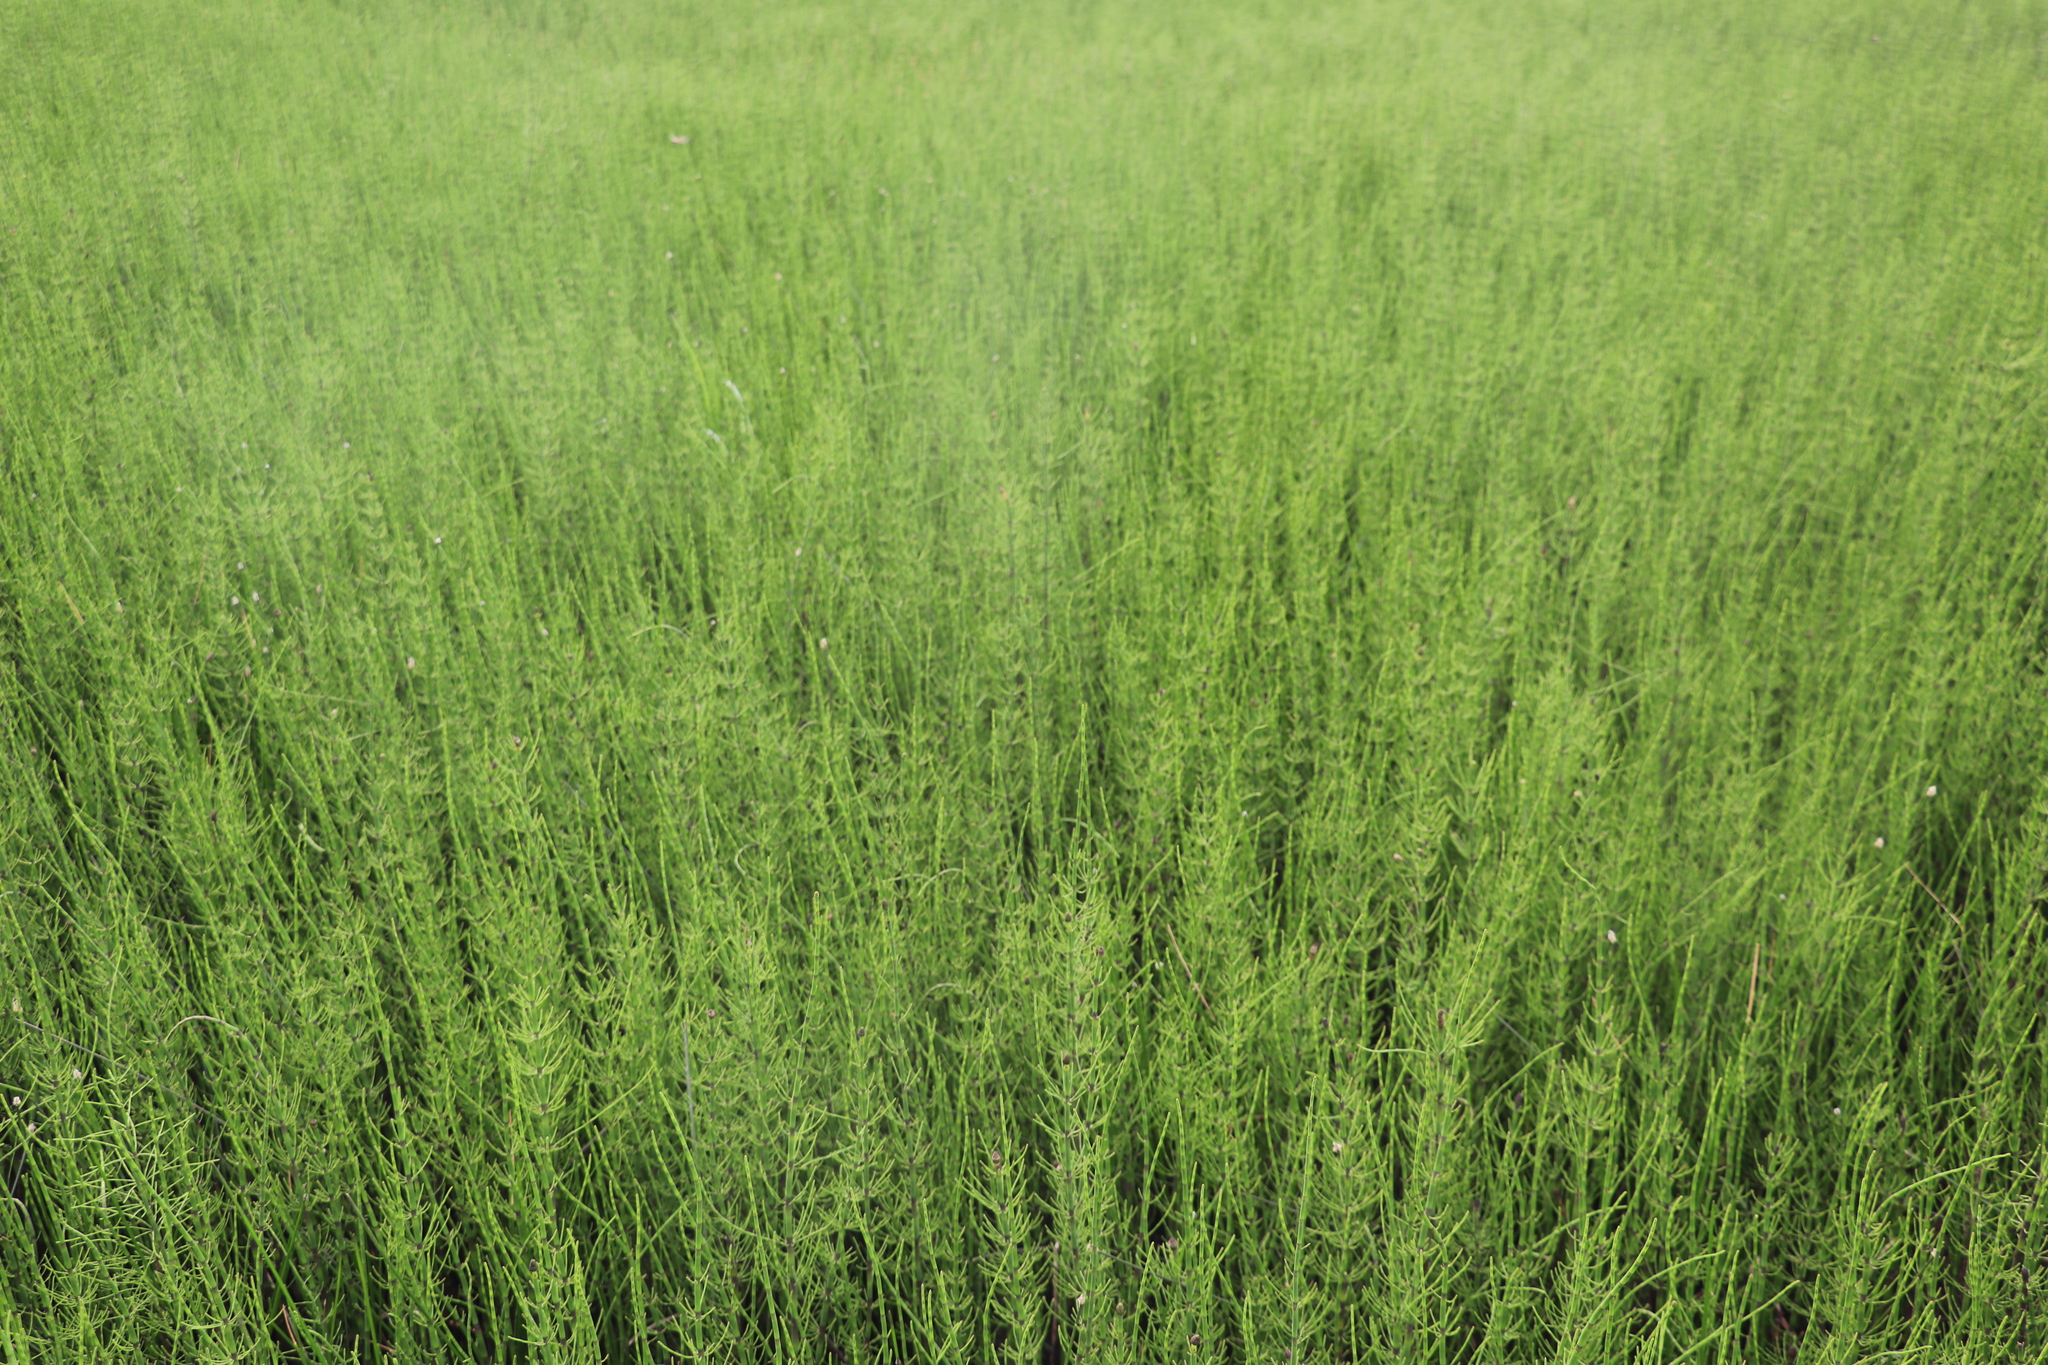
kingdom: Plantae
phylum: Tracheophyta
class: Polypodiopsida
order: Equisetales
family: Equisetaceae
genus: Equisetum
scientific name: Equisetum fluviatile
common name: Water horsetail
